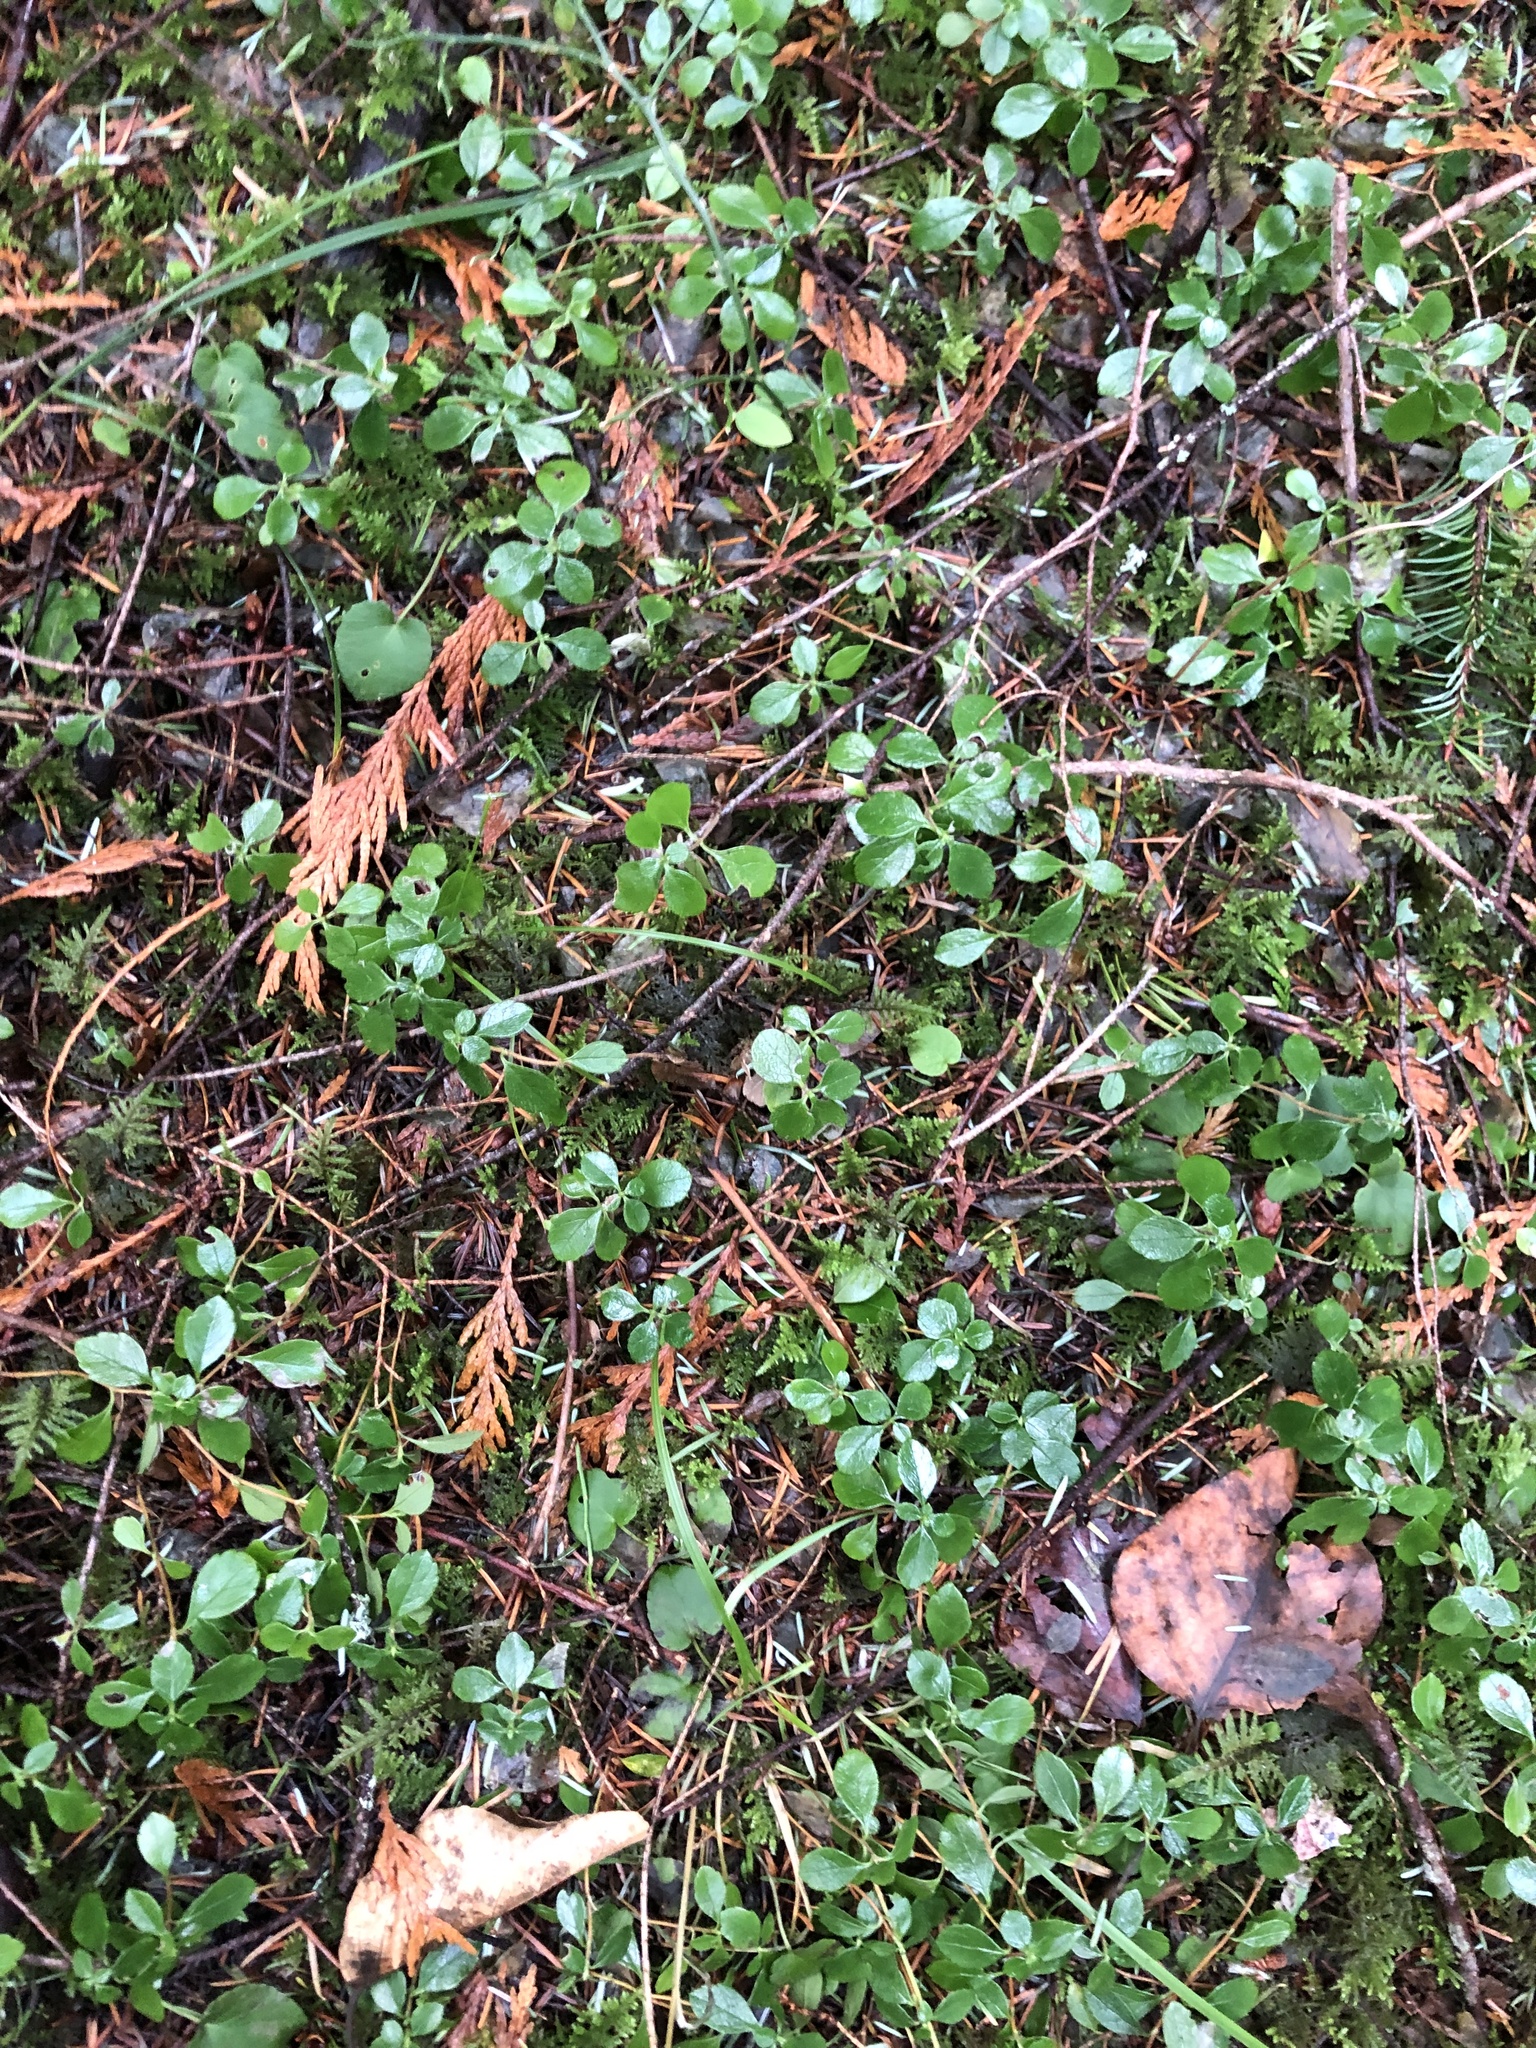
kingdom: Plantae
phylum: Tracheophyta
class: Magnoliopsida
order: Dipsacales
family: Caprifoliaceae
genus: Linnaea
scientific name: Linnaea borealis
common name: Twinflower
